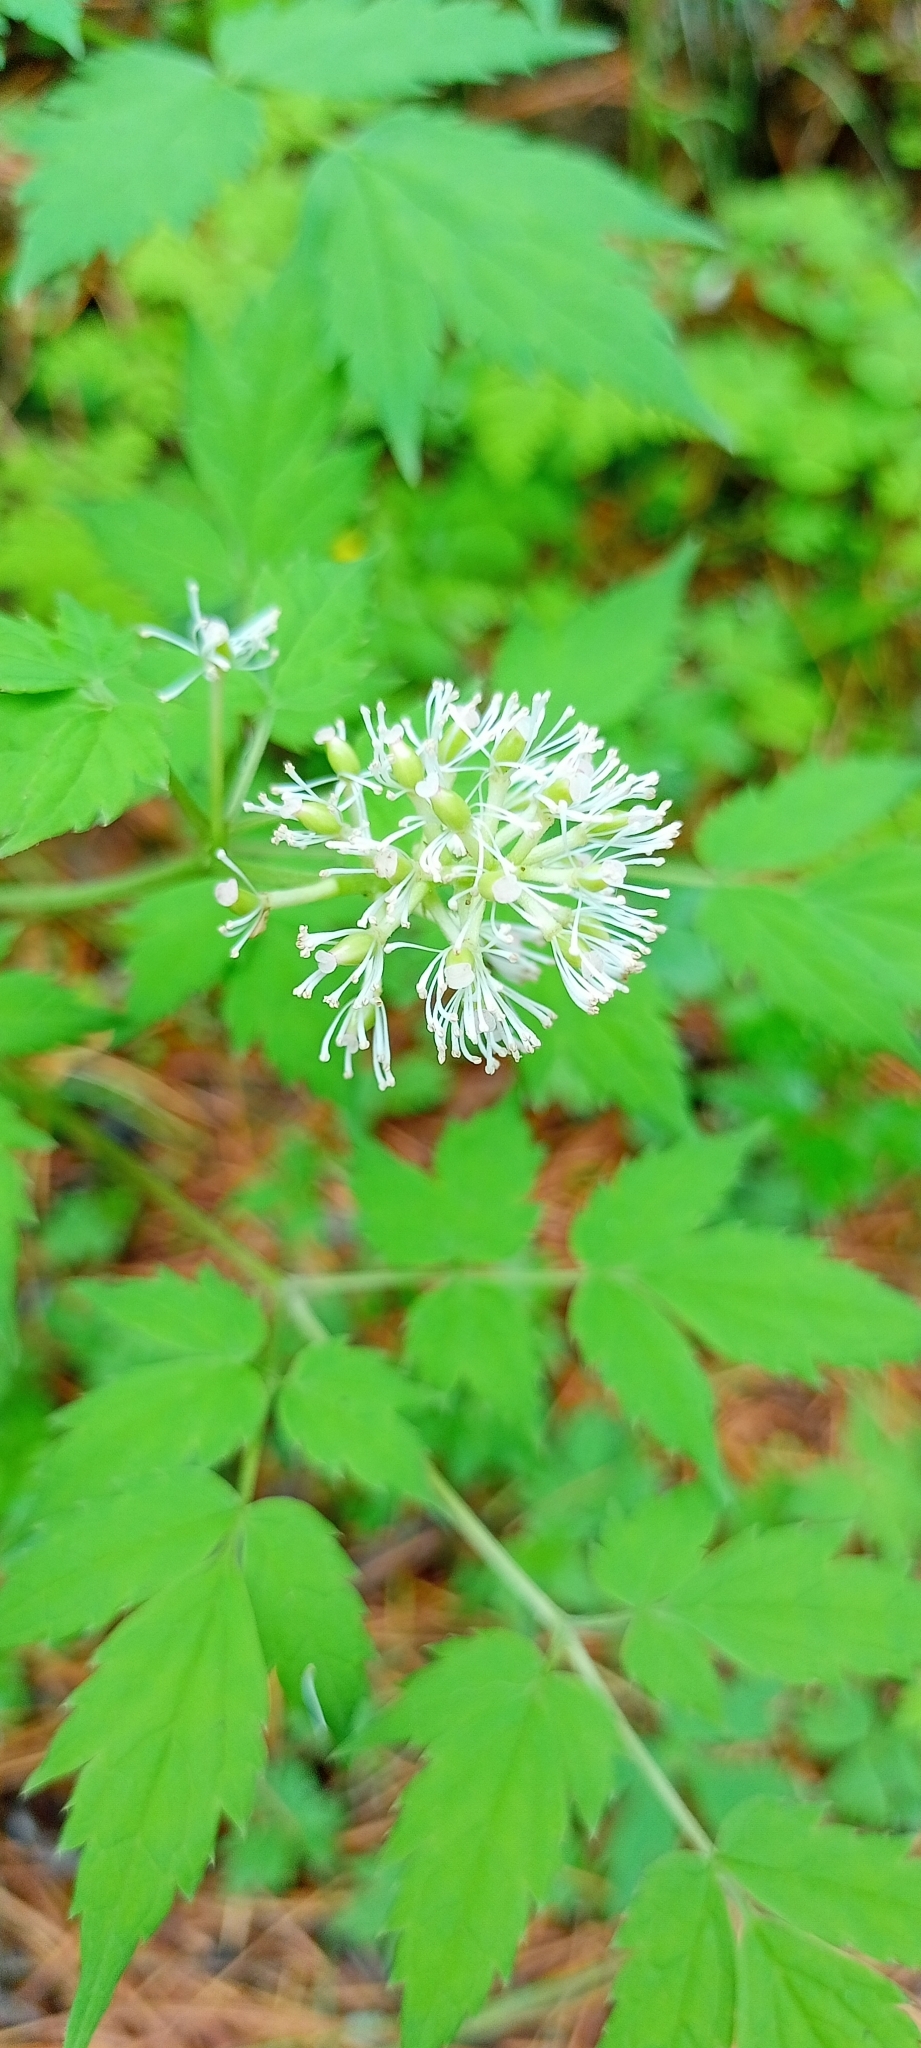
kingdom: Plantae
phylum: Tracheophyta
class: Magnoliopsida
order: Ranunculales
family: Ranunculaceae
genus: Actaea
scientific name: Actaea erythrocarpa
